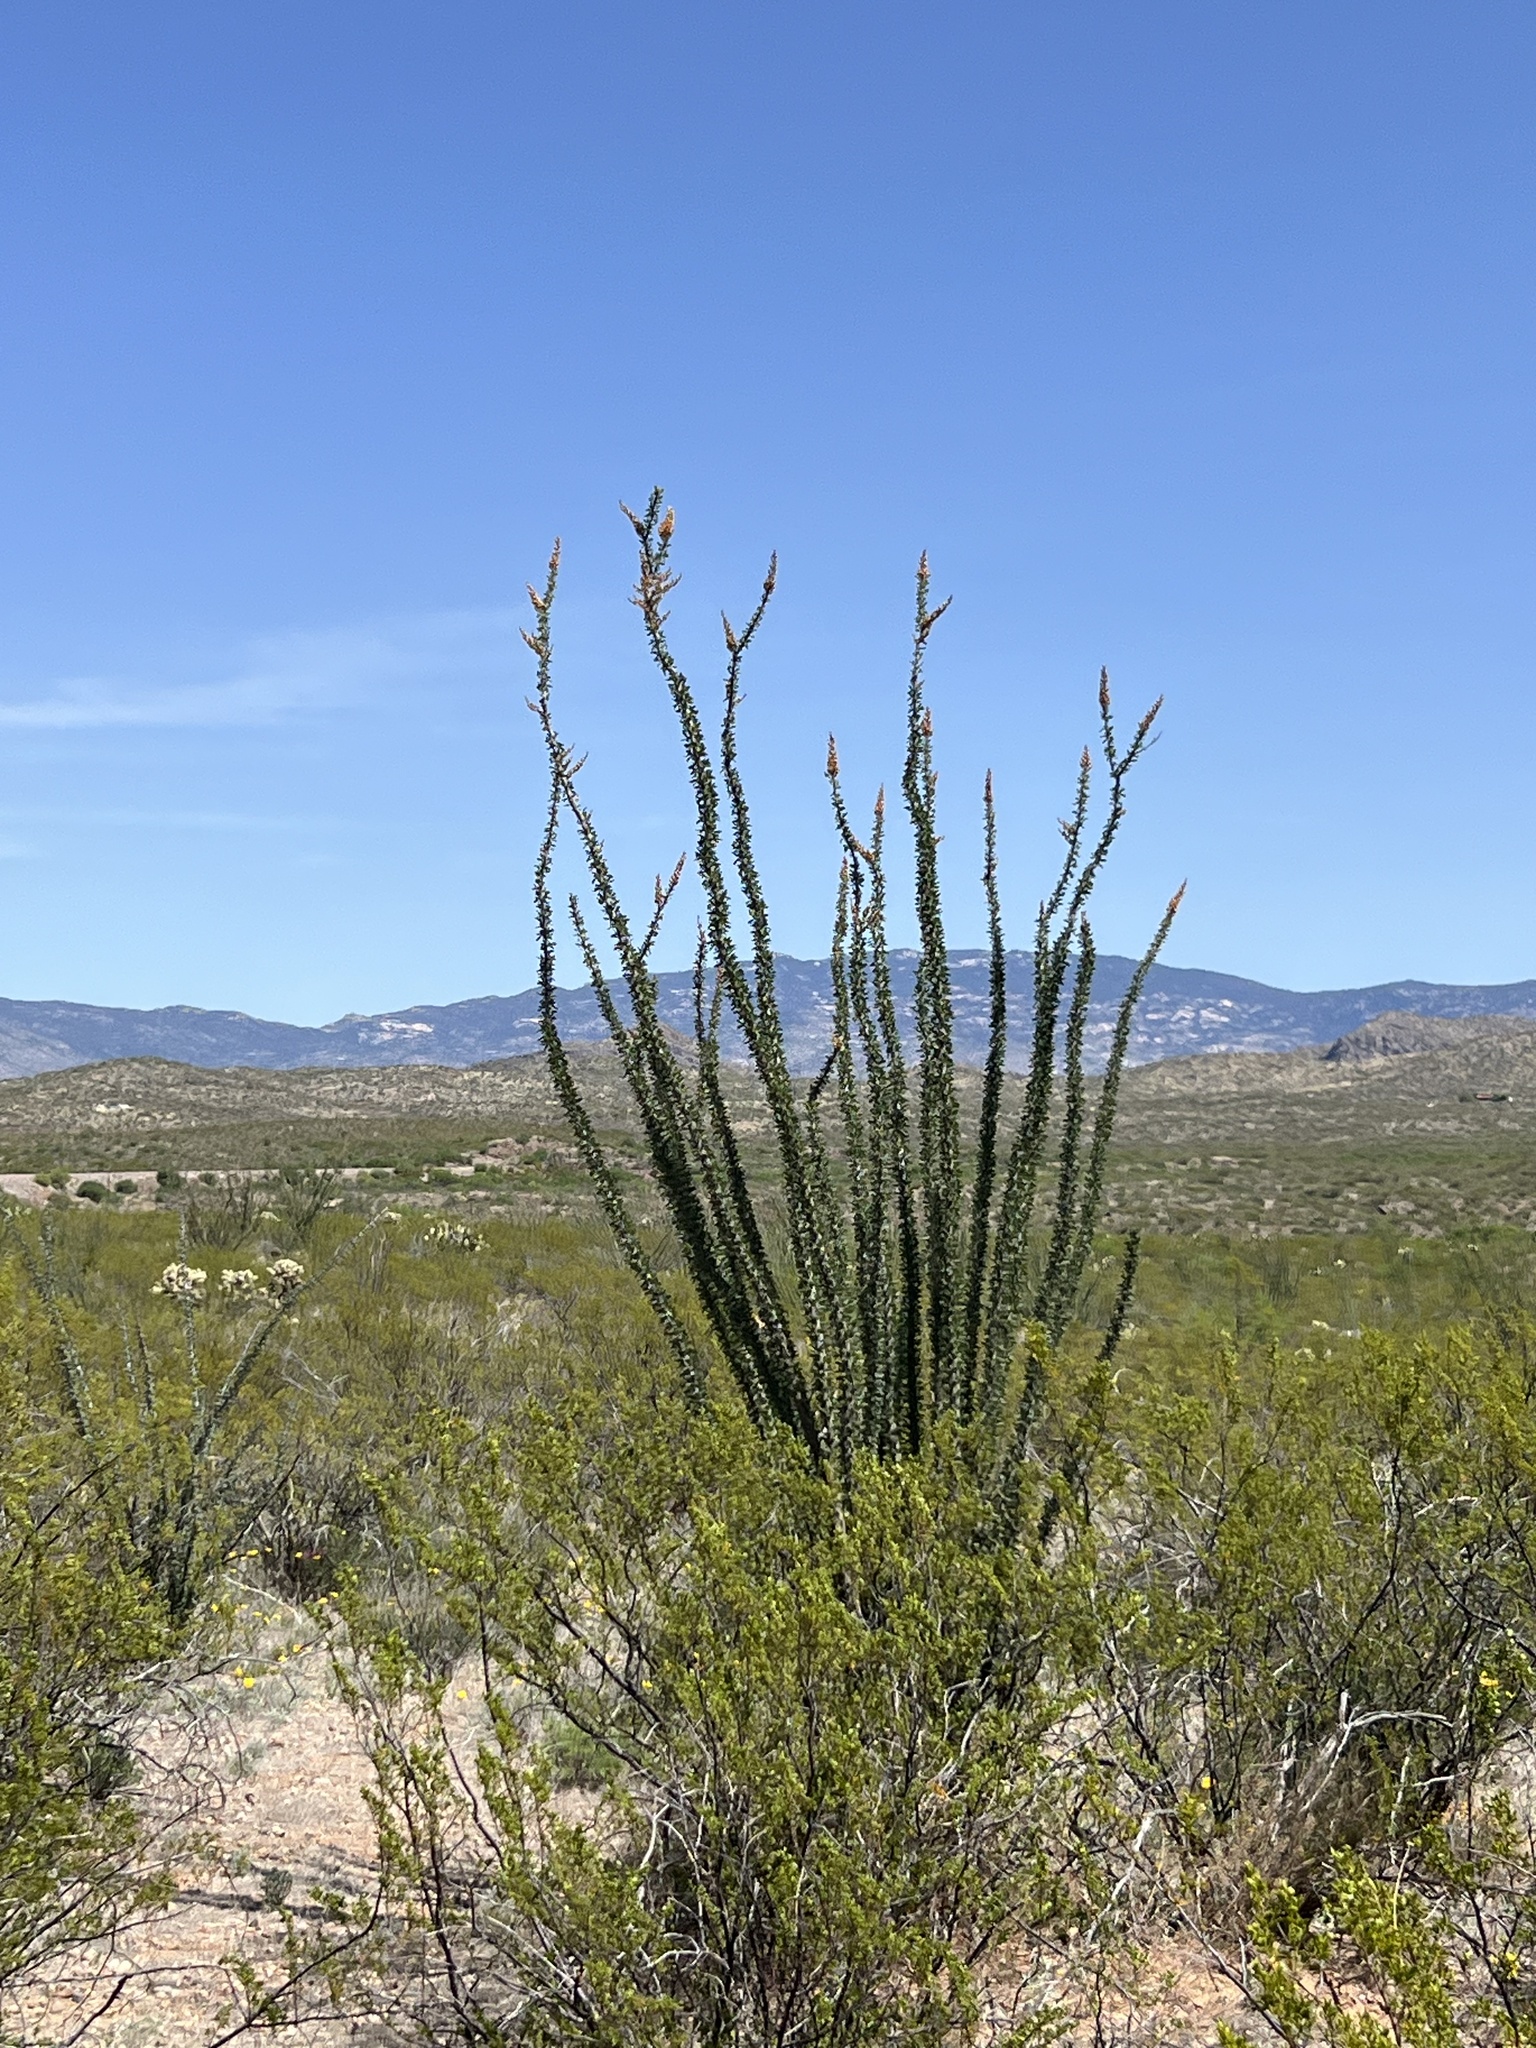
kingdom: Plantae
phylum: Tracheophyta
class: Magnoliopsida
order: Ericales
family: Fouquieriaceae
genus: Fouquieria
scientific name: Fouquieria splendens
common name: Vine-cactus
